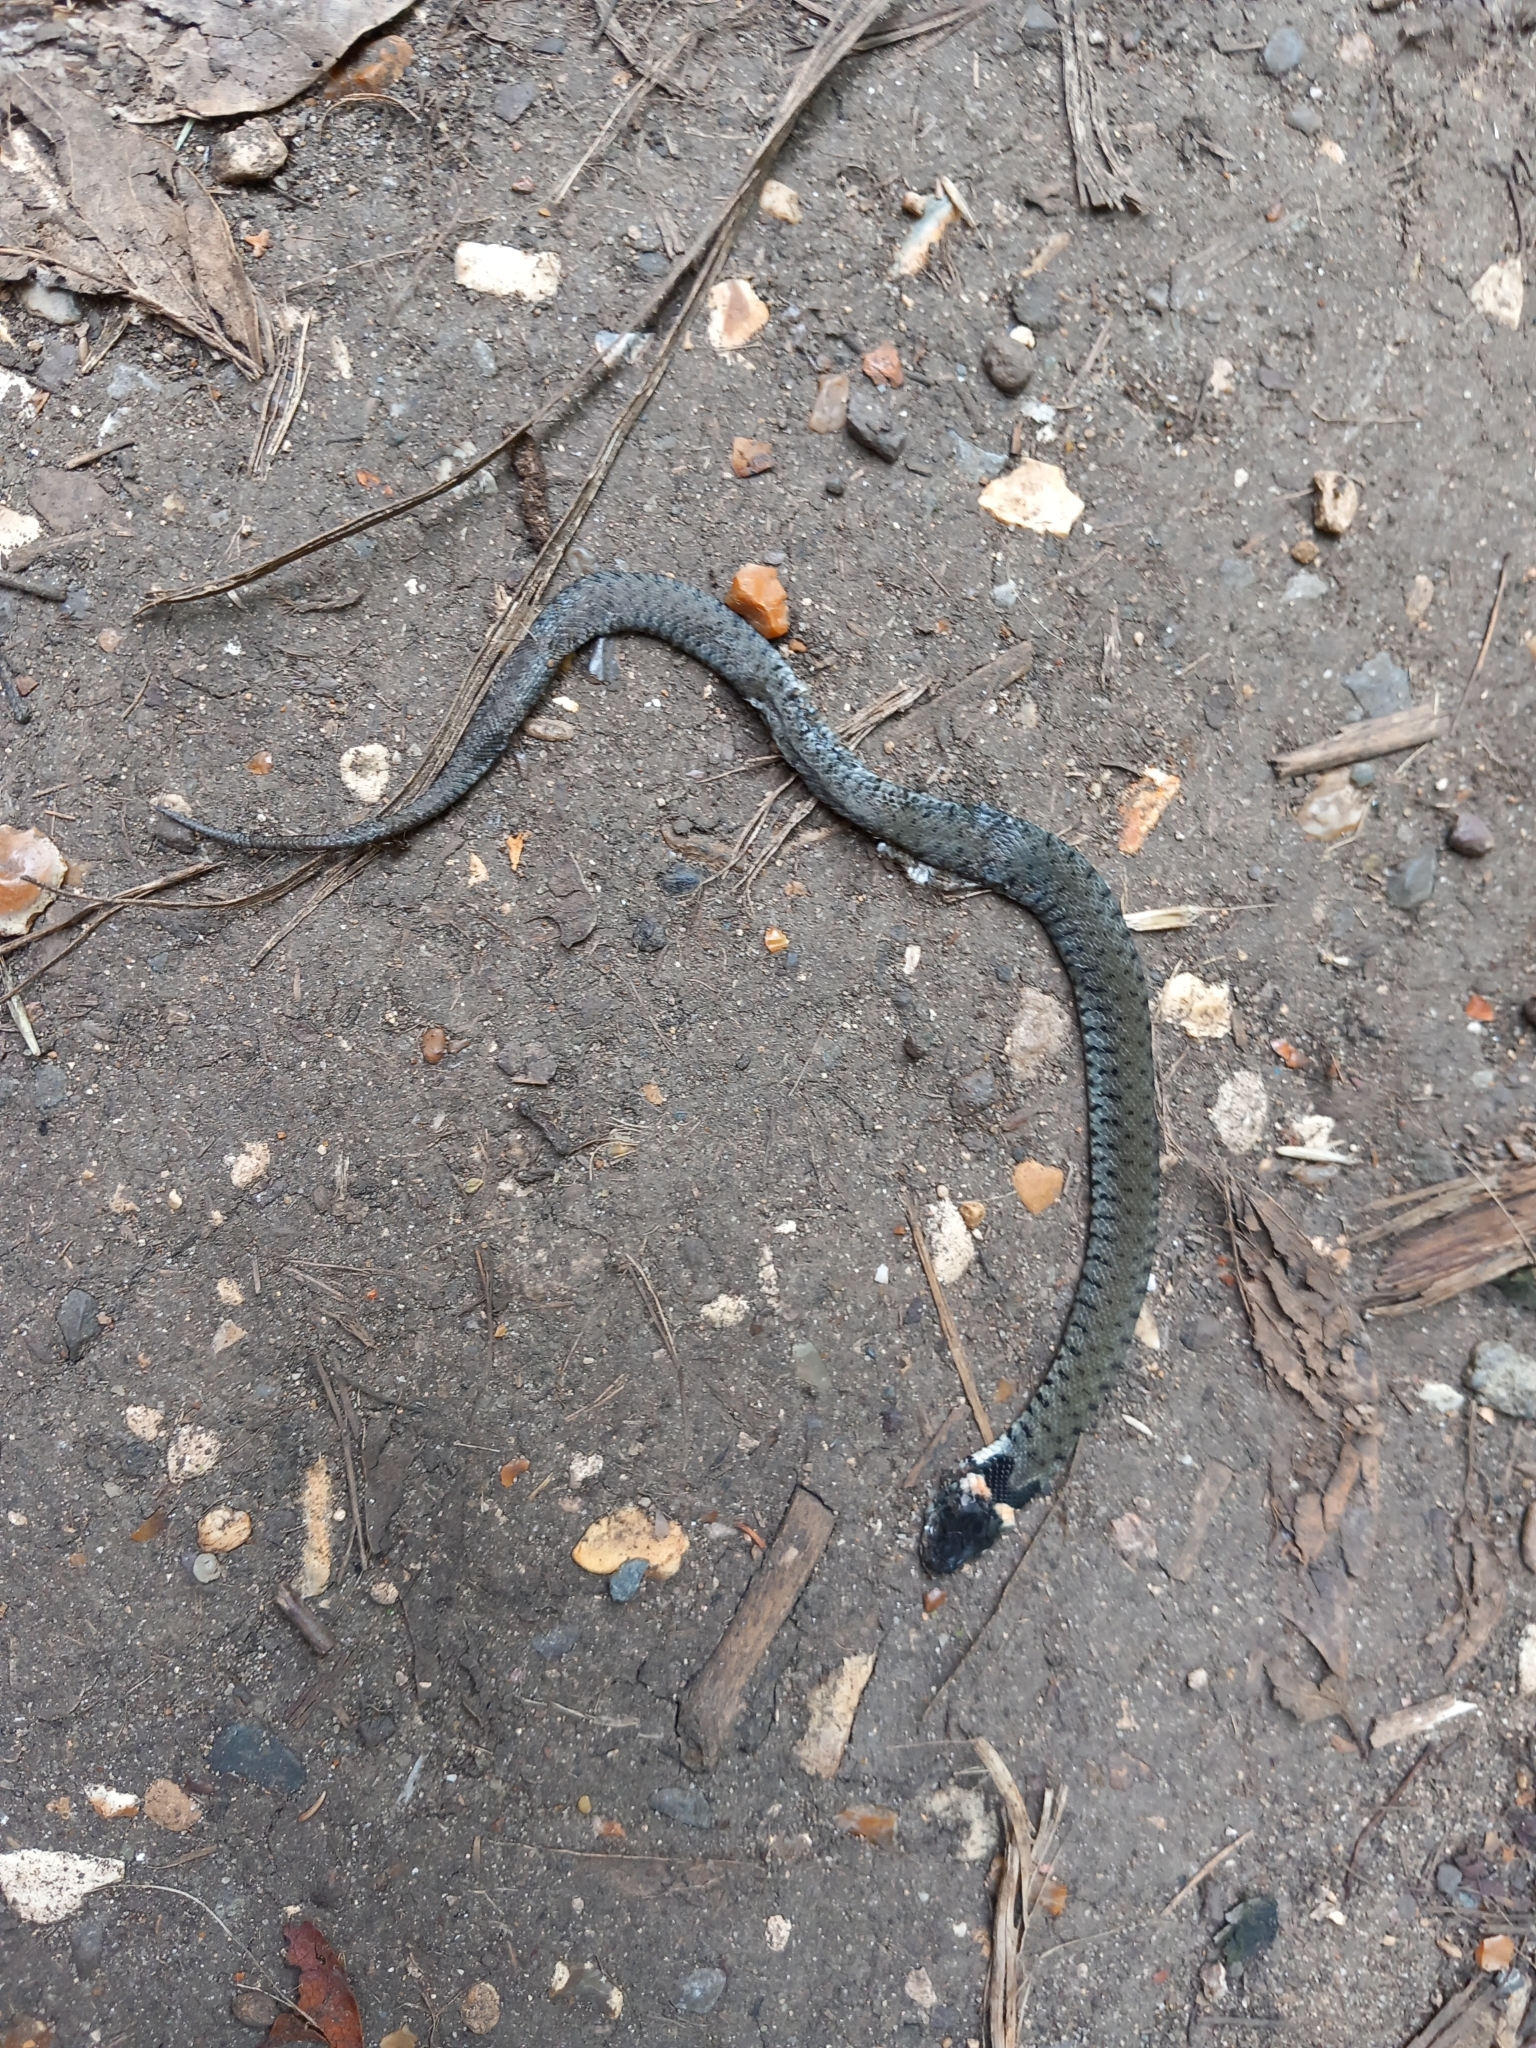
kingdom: Animalia
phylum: Chordata
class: Squamata
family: Colubridae
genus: Natrix
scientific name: Natrix helvetica
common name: Banded grass snake
